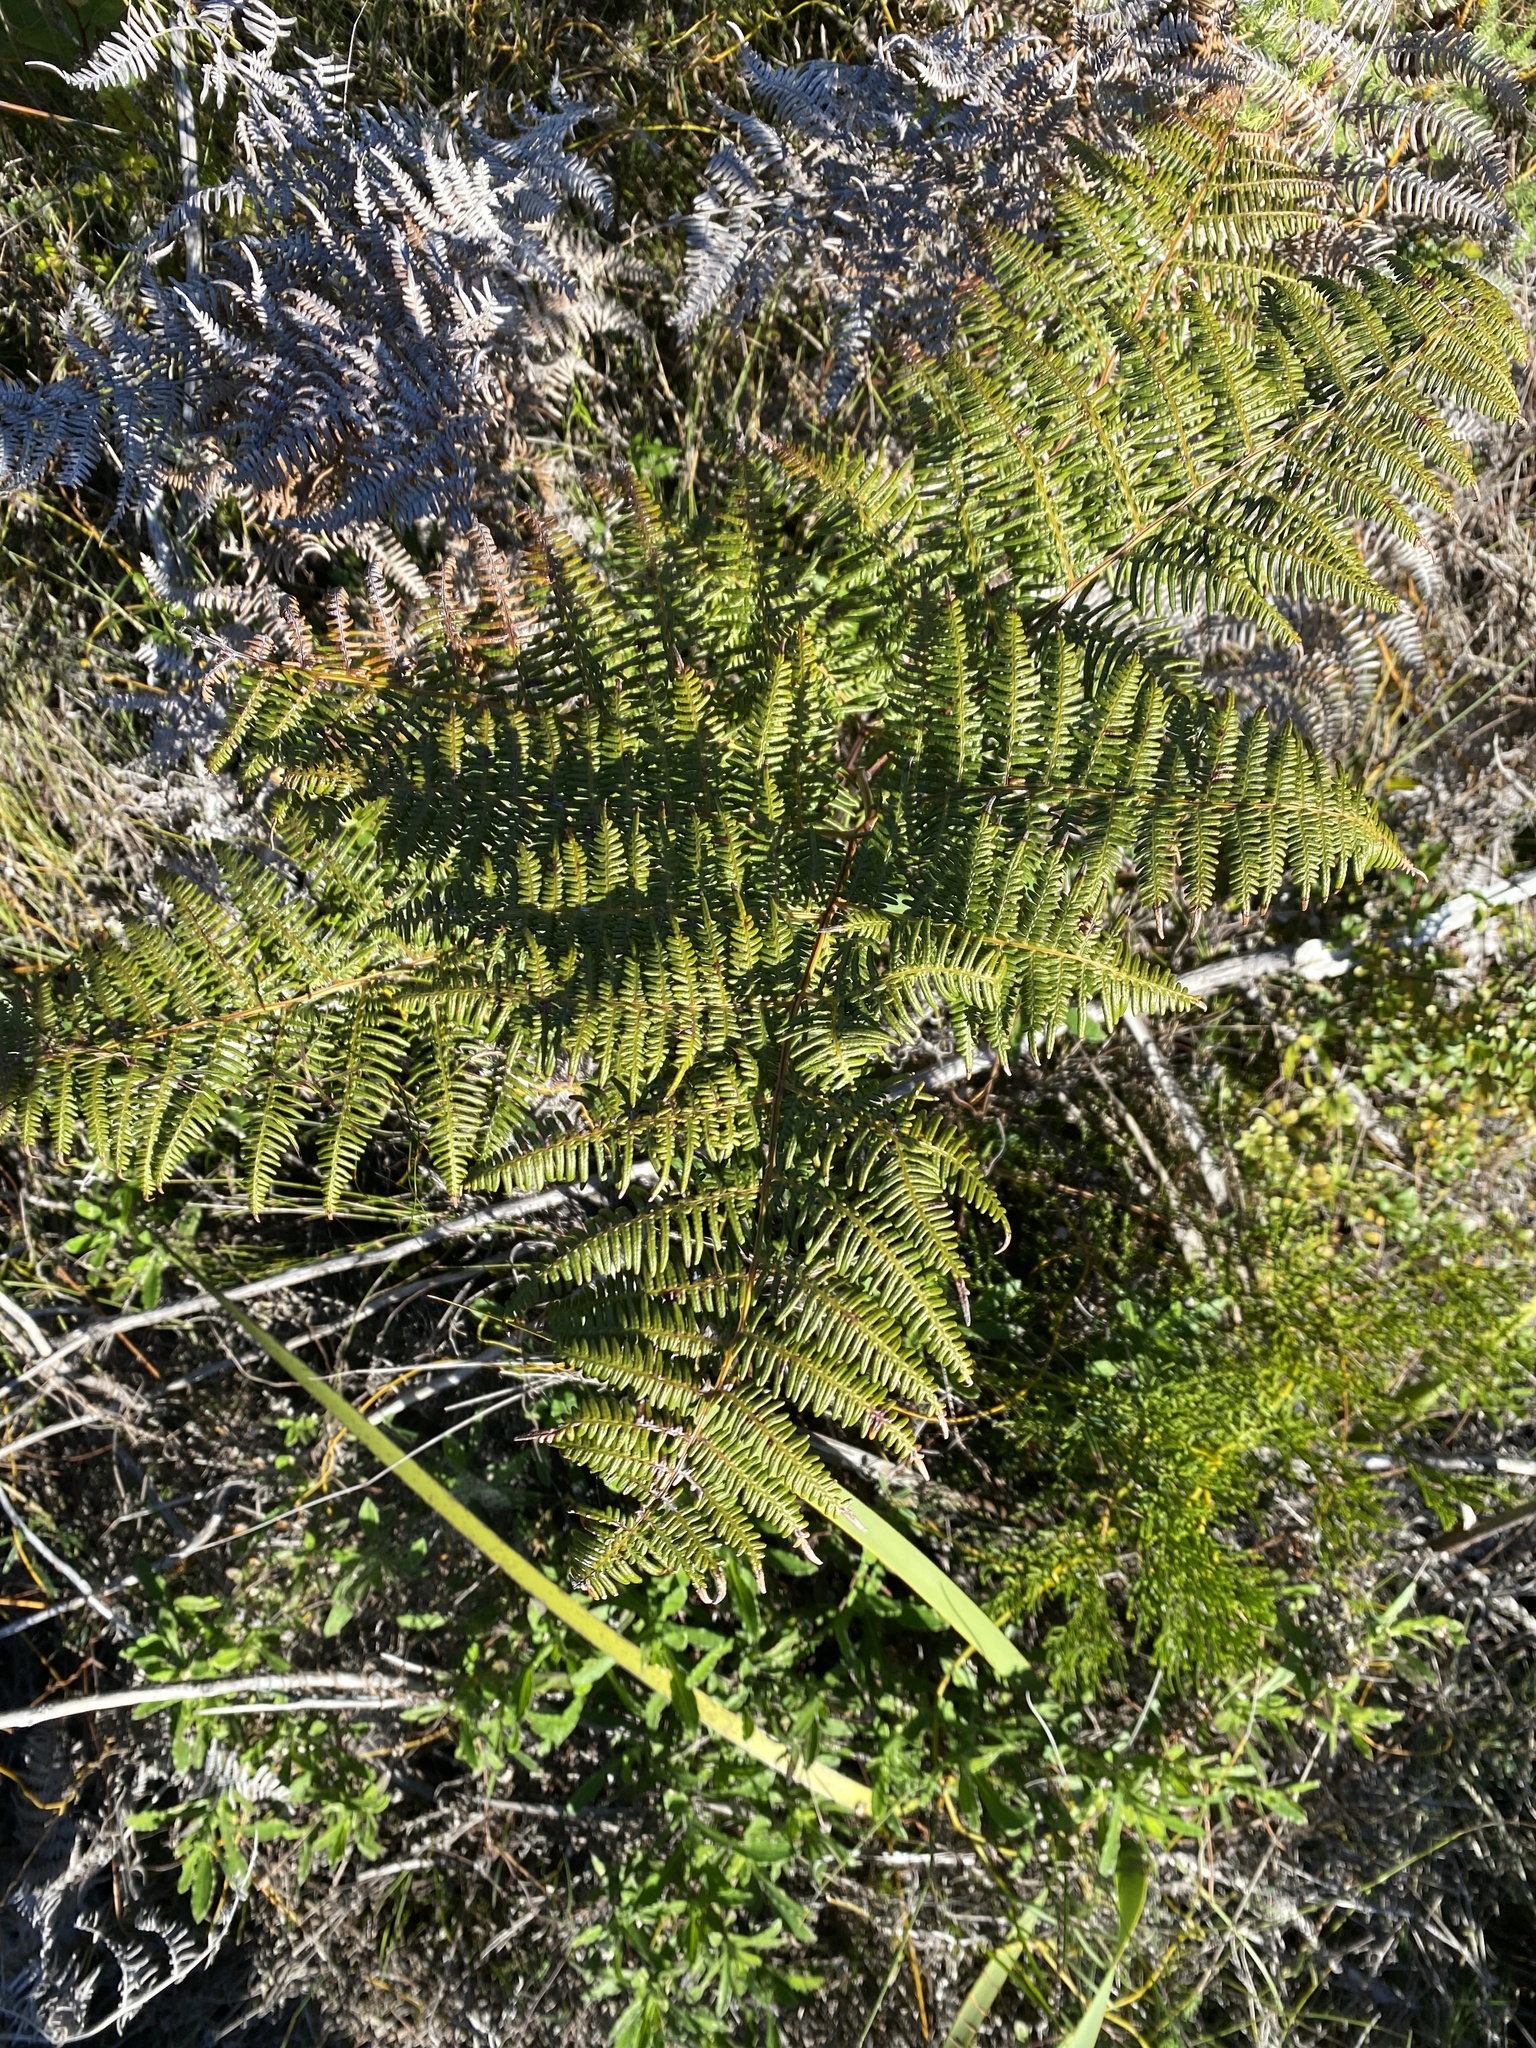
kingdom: Plantae
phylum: Tracheophyta
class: Polypodiopsida
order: Polypodiales
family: Dennstaedtiaceae
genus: Pteridium
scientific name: Pteridium aquilinum
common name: Bracken
